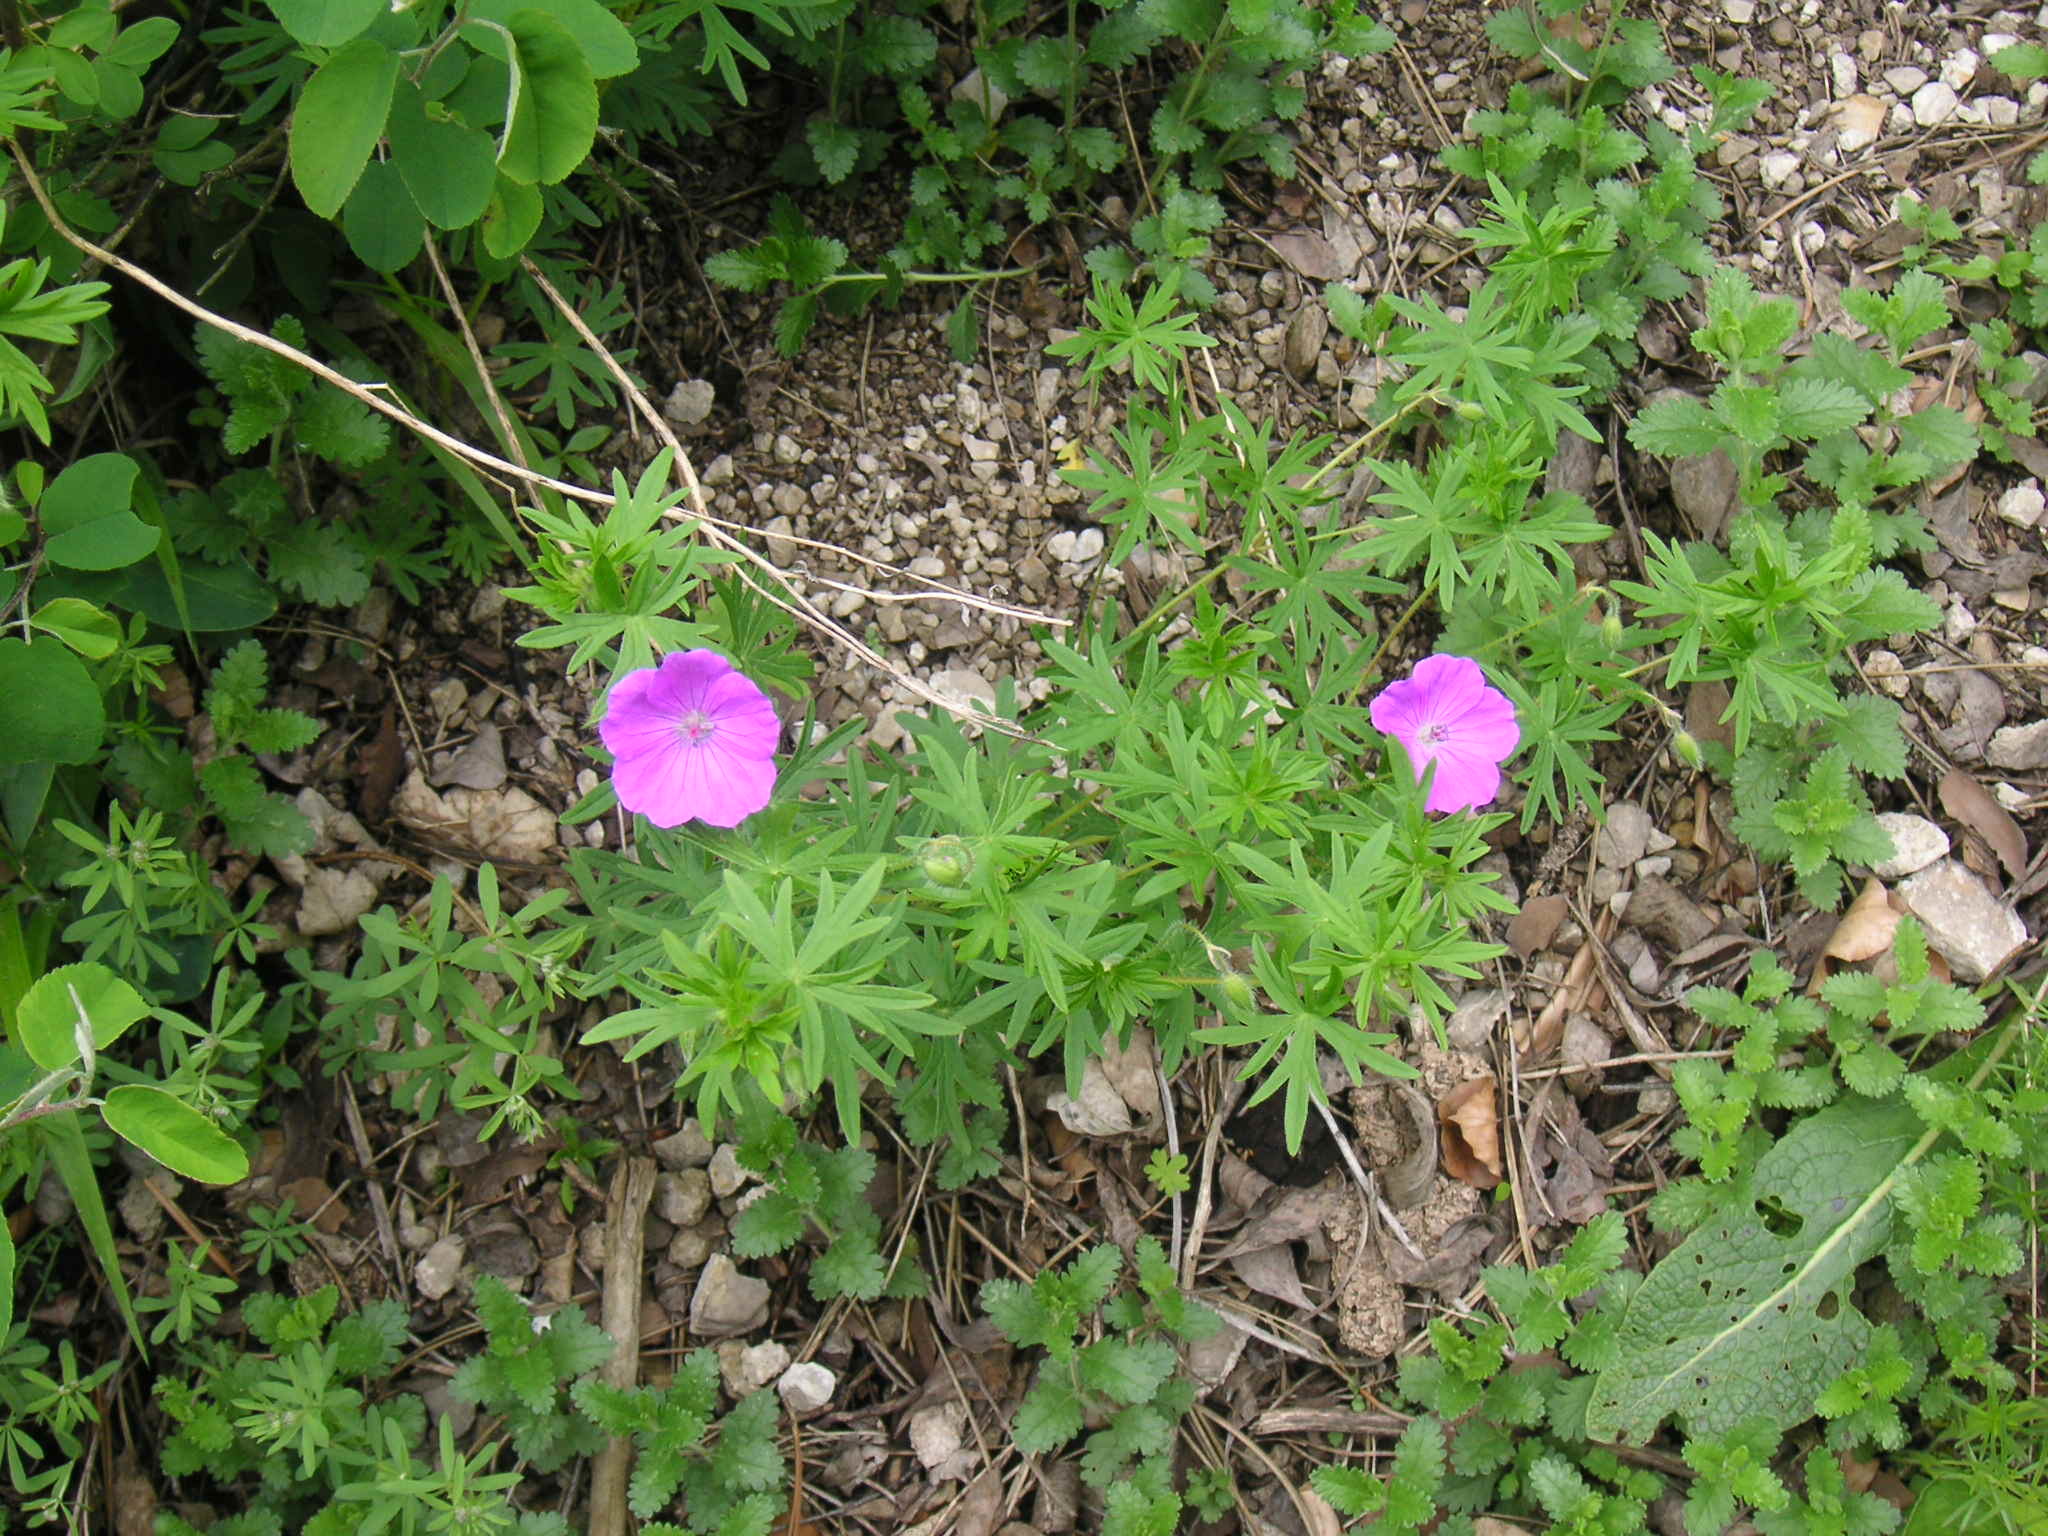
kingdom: Plantae
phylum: Tracheophyta
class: Magnoliopsida
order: Geraniales
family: Geraniaceae
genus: Geranium
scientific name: Geranium sanguineum
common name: Bloody crane's-bill
